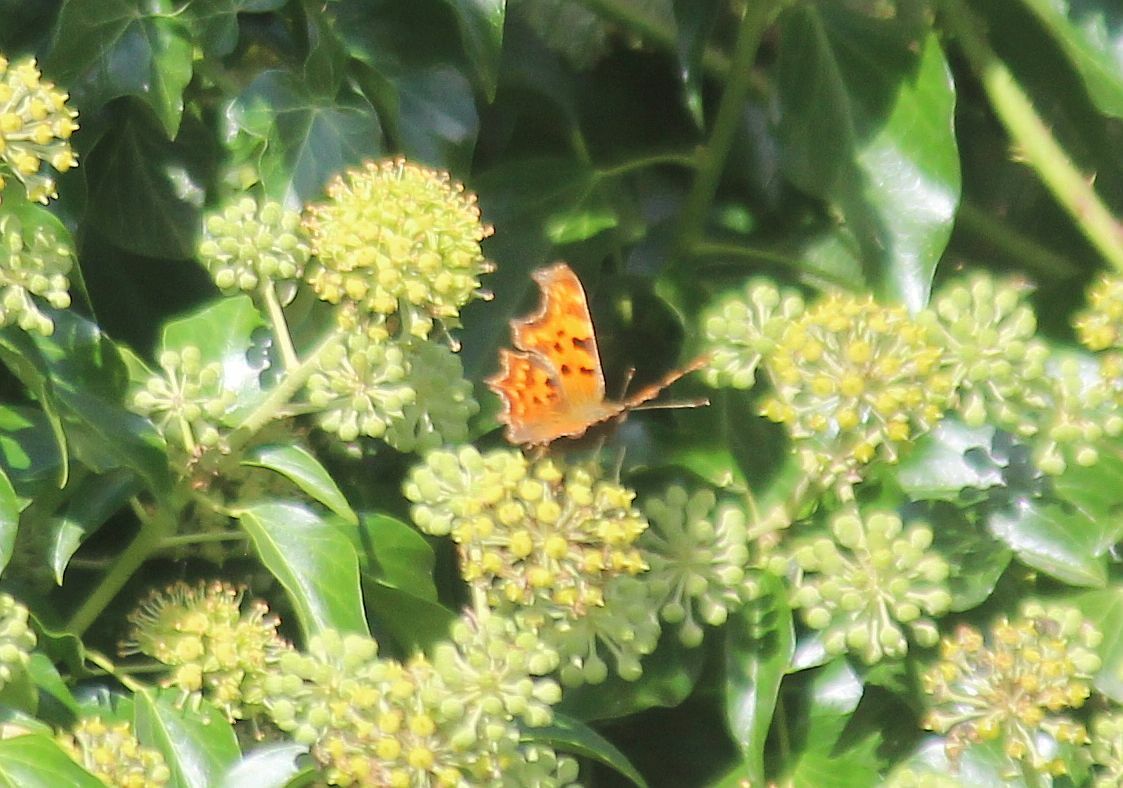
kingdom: Animalia
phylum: Arthropoda
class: Insecta
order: Lepidoptera
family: Nymphalidae
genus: Polygonia
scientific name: Polygonia c-album
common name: Comma
